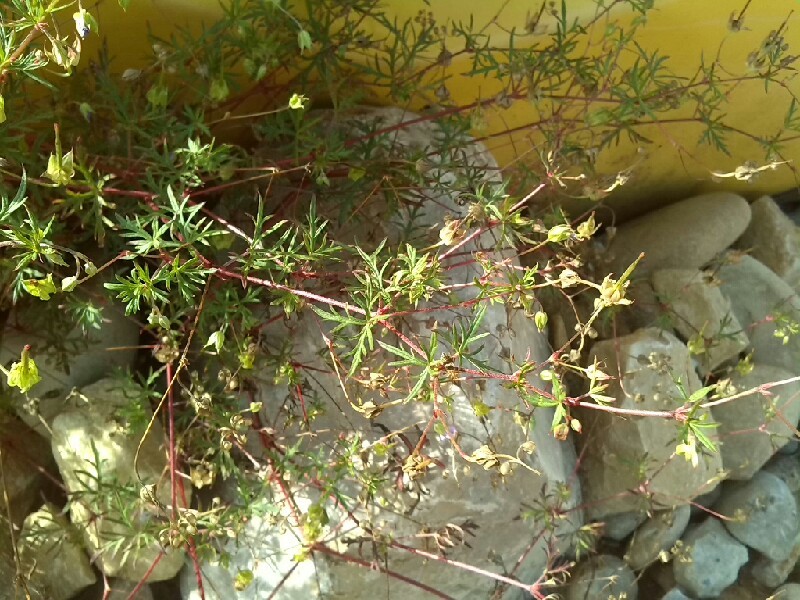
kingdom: Plantae
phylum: Tracheophyta
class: Magnoliopsida
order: Geraniales
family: Geraniaceae
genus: Geranium
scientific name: Geranium columbinum
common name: Long-stalked crane's-bill
